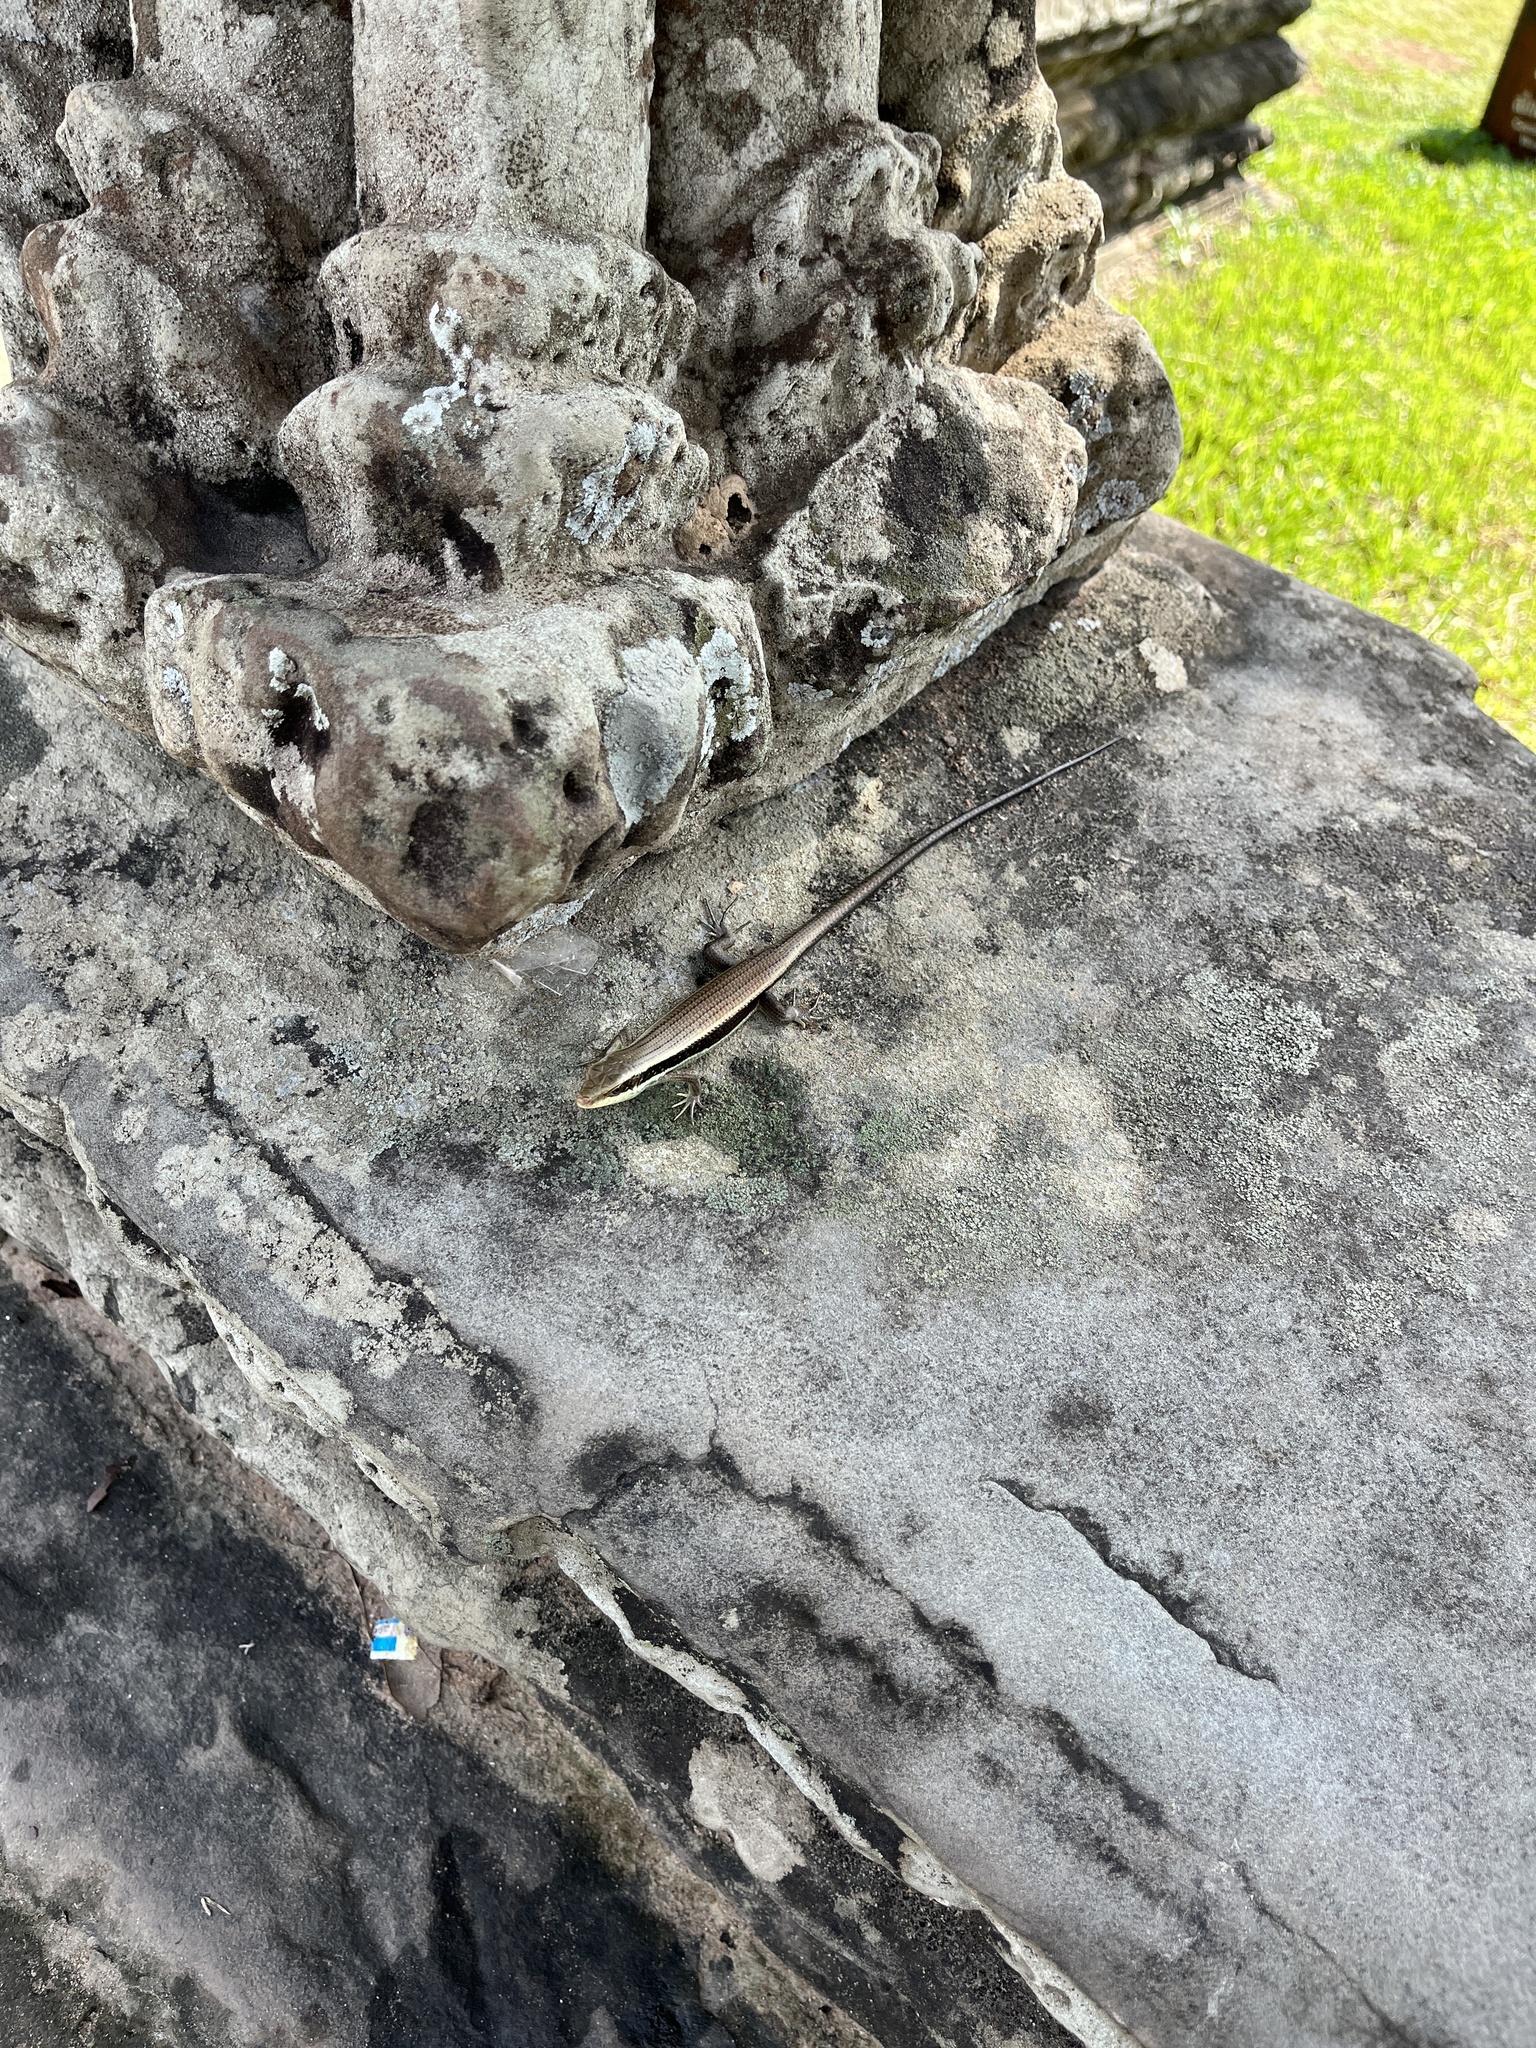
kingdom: Animalia
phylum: Chordata
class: Squamata
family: Scincidae
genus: Eutropis
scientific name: Eutropis longicaudata
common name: Long-tailed sun skink
